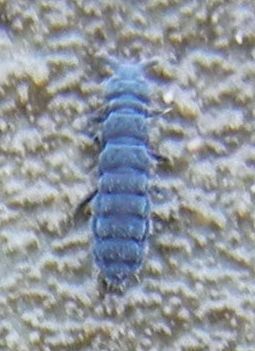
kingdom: Animalia
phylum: Arthropoda
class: Collembola
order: Poduromorpha
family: Neanuridae
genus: Anurida
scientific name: Anurida maritima
